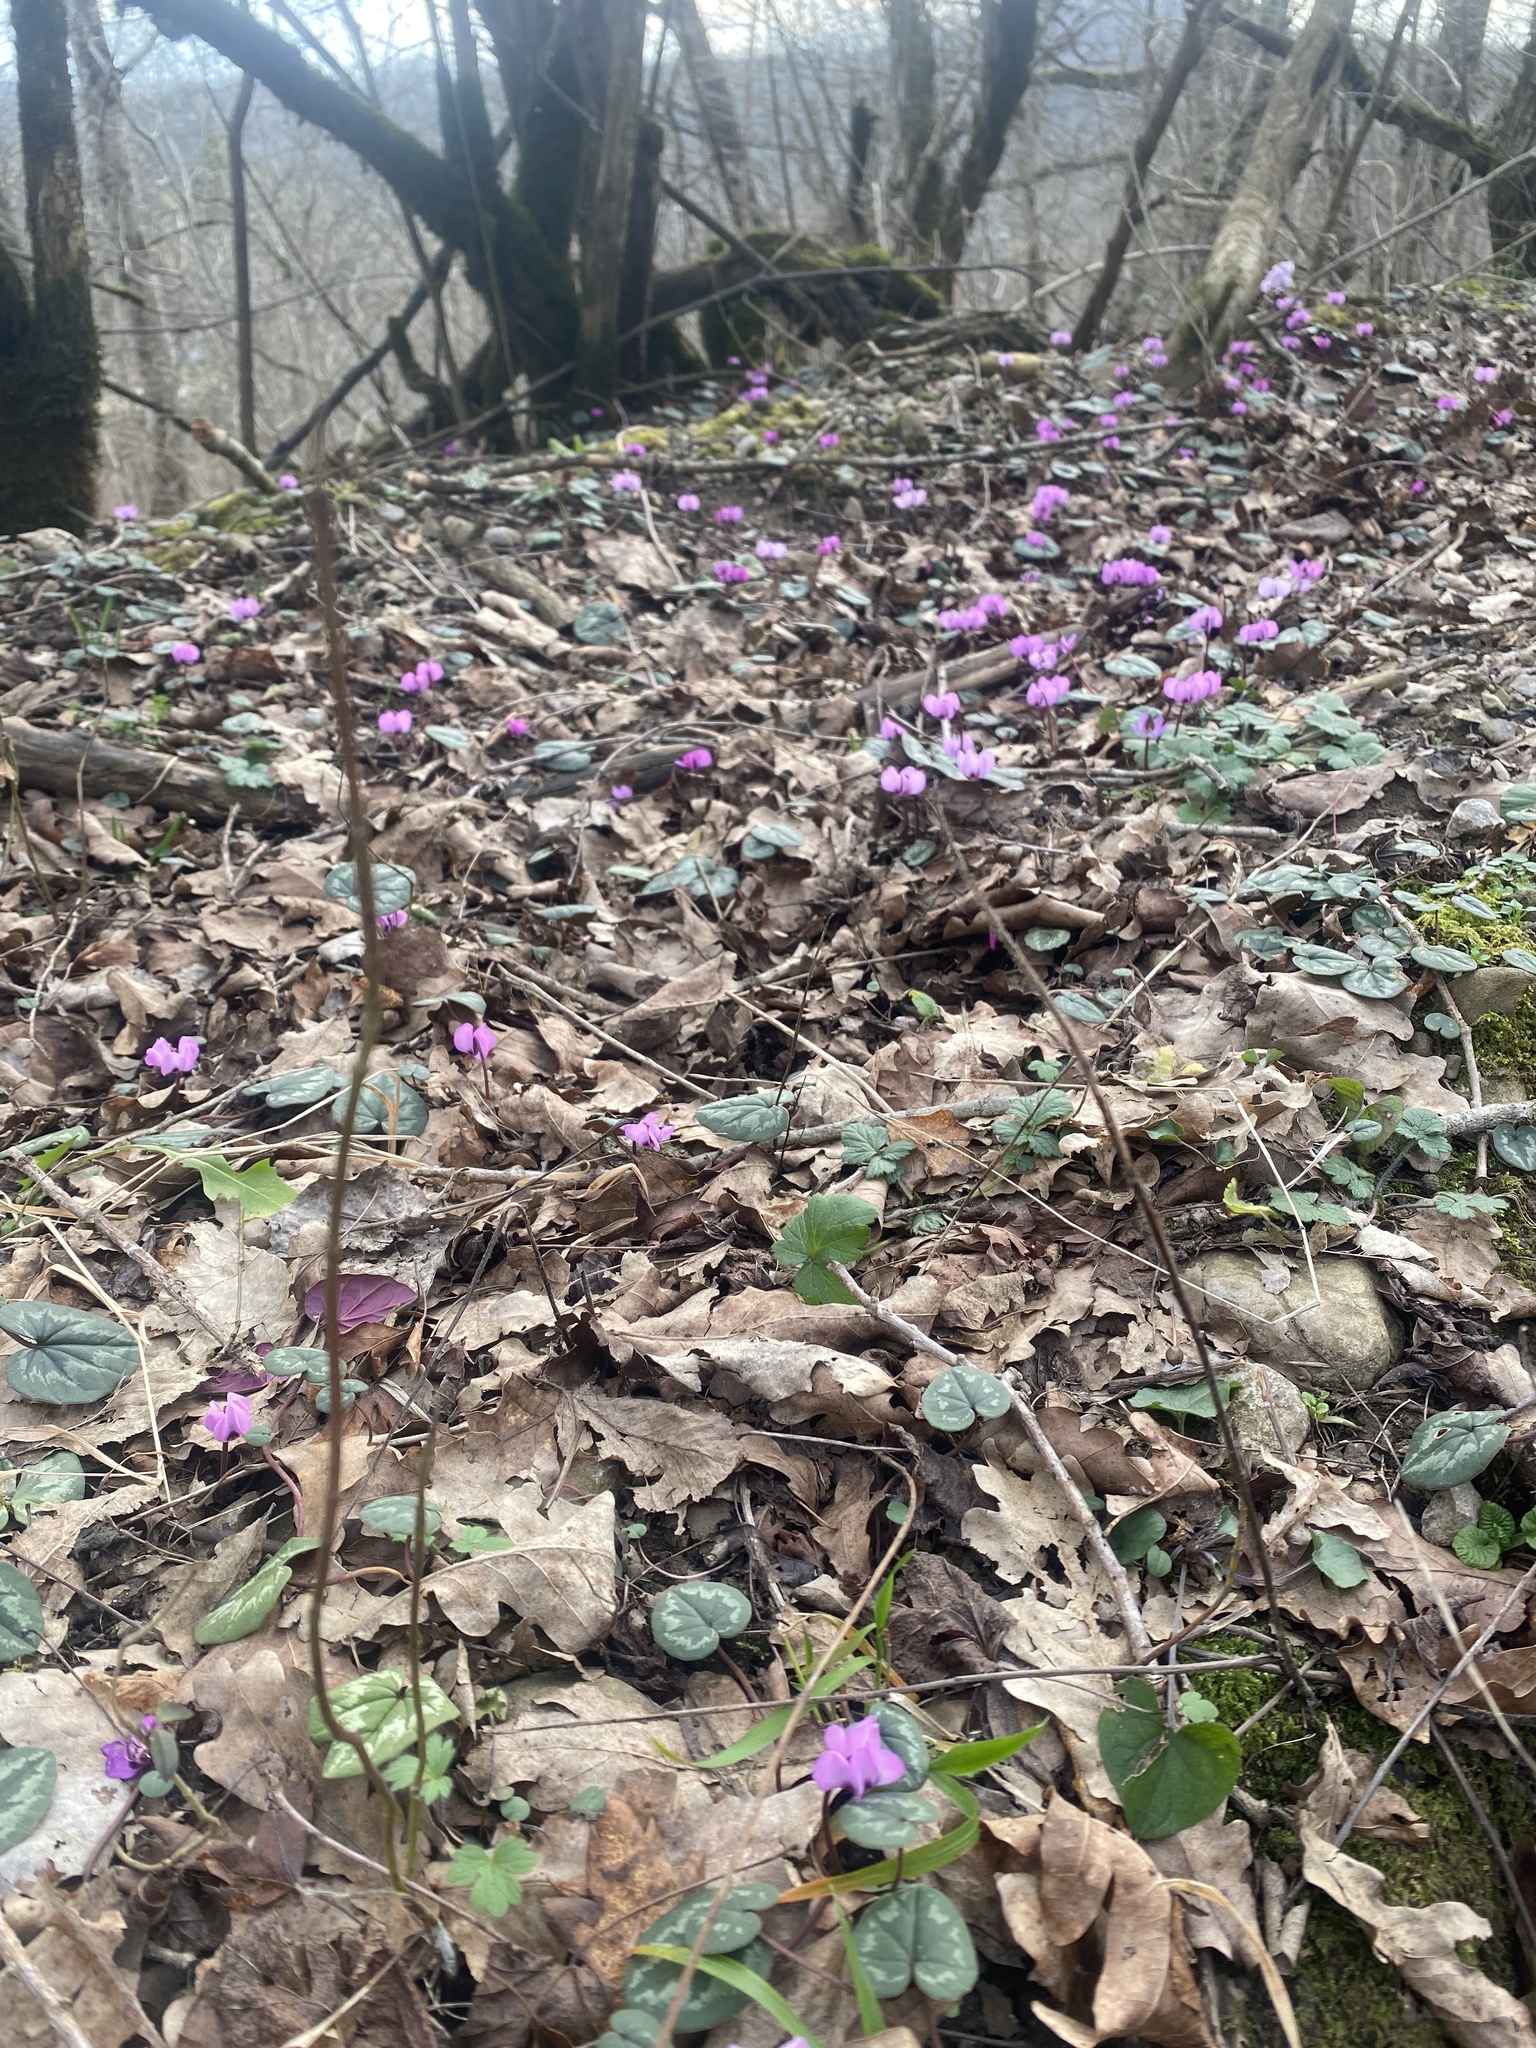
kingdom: Plantae
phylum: Tracheophyta
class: Magnoliopsida
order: Ericales
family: Primulaceae
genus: Cyclamen
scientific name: Cyclamen coum
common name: Eastern sowbread
